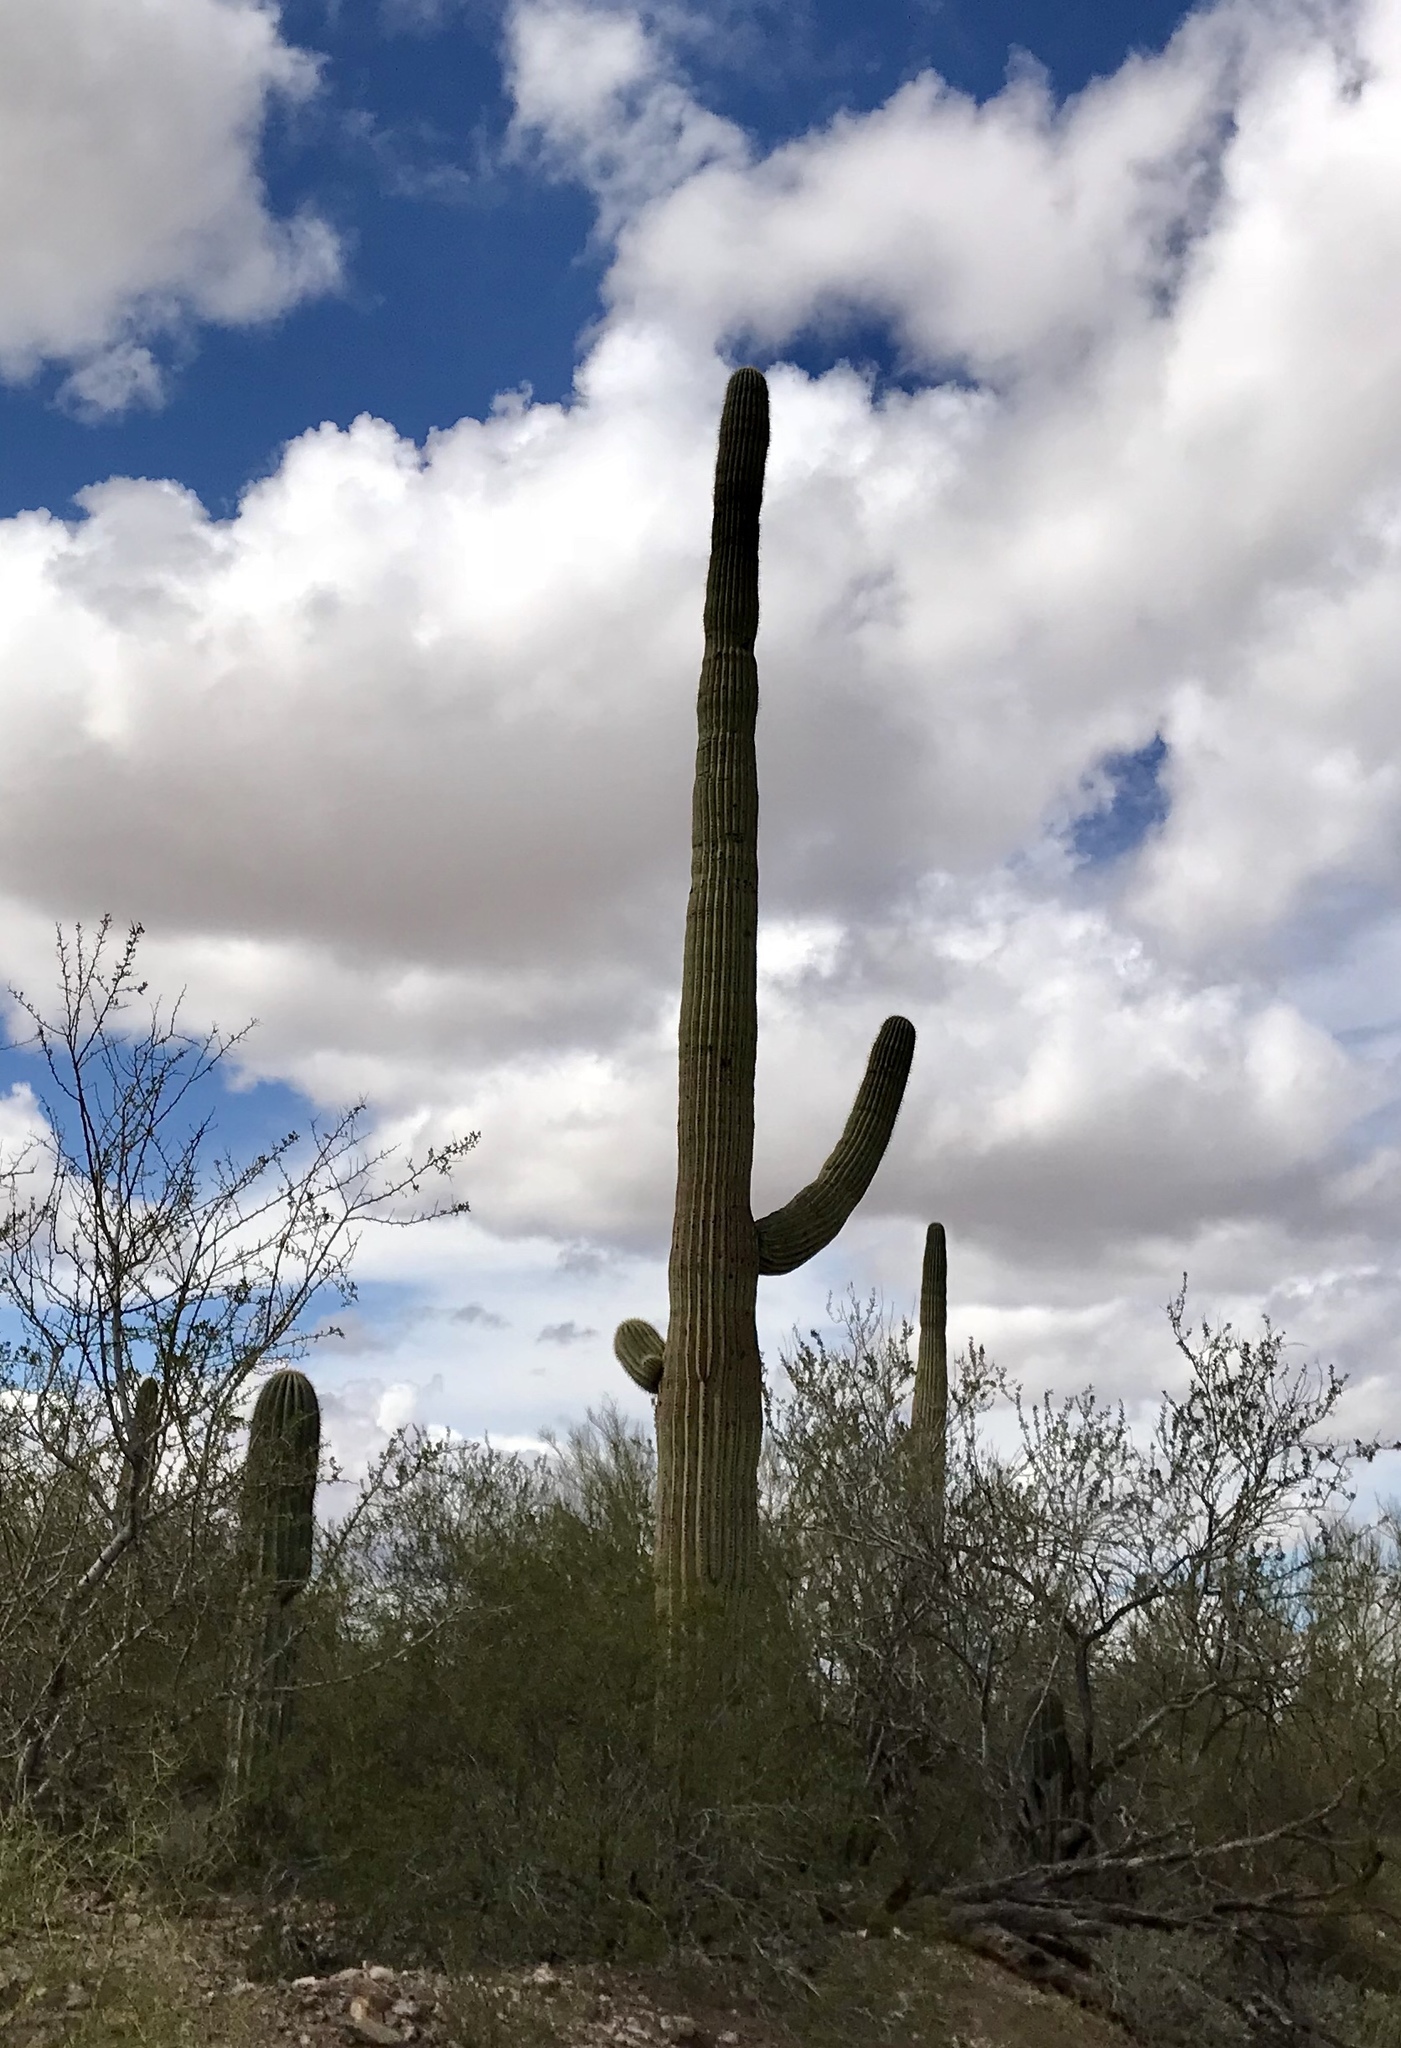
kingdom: Plantae
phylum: Tracheophyta
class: Magnoliopsida
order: Caryophyllales
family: Cactaceae
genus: Carnegiea
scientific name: Carnegiea gigantea
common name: Saguaro
